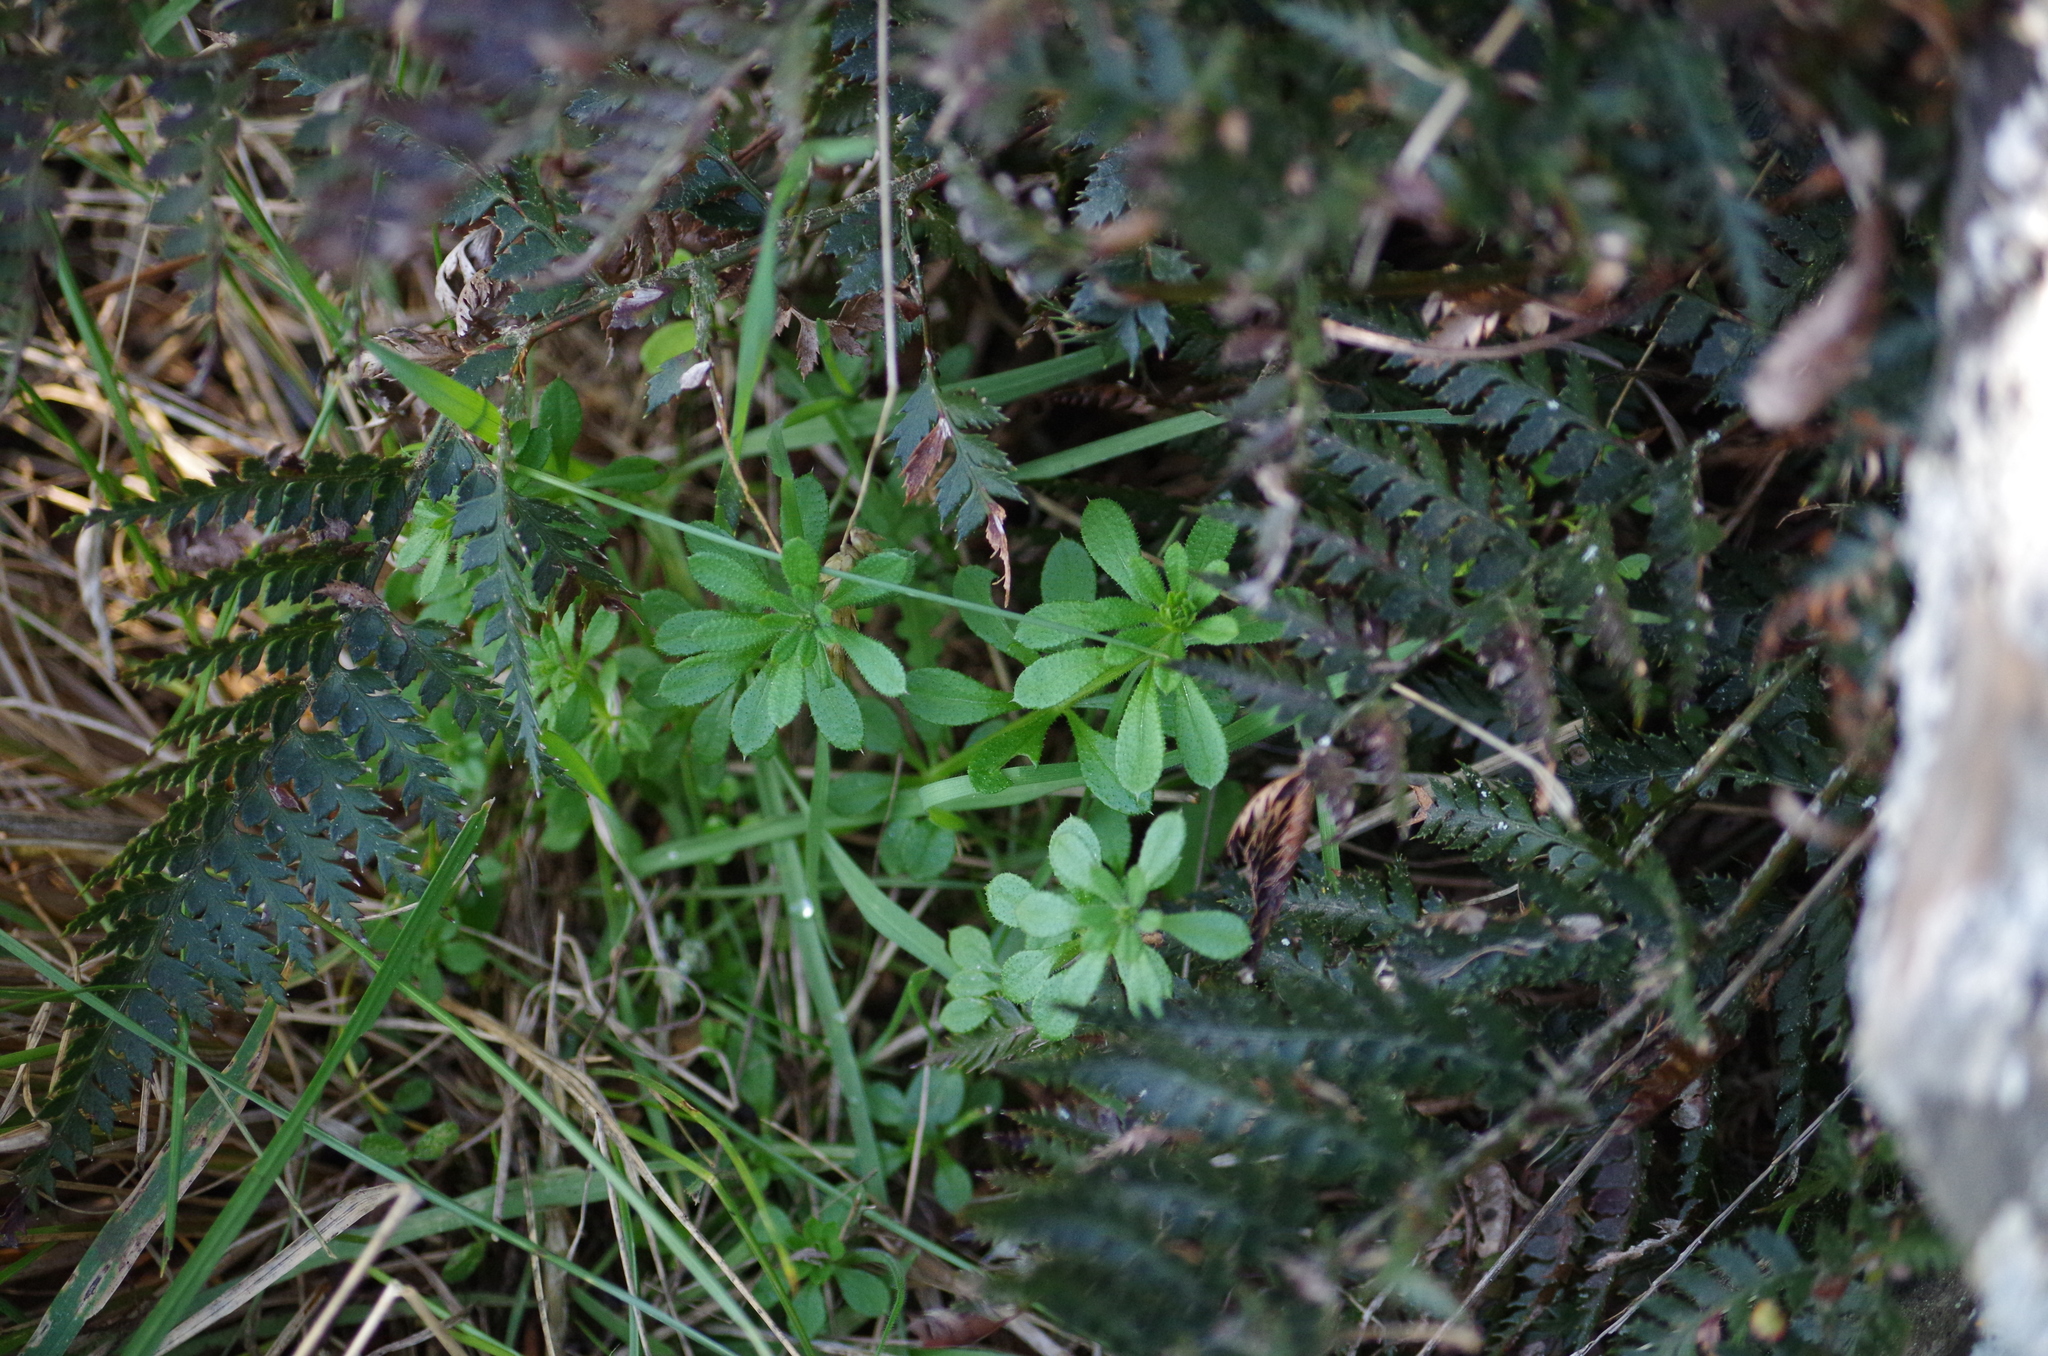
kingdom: Plantae
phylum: Tracheophyta
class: Magnoliopsida
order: Gentianales
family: Rubiaceae
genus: Galium
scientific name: Galium aparine
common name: Cleavers
